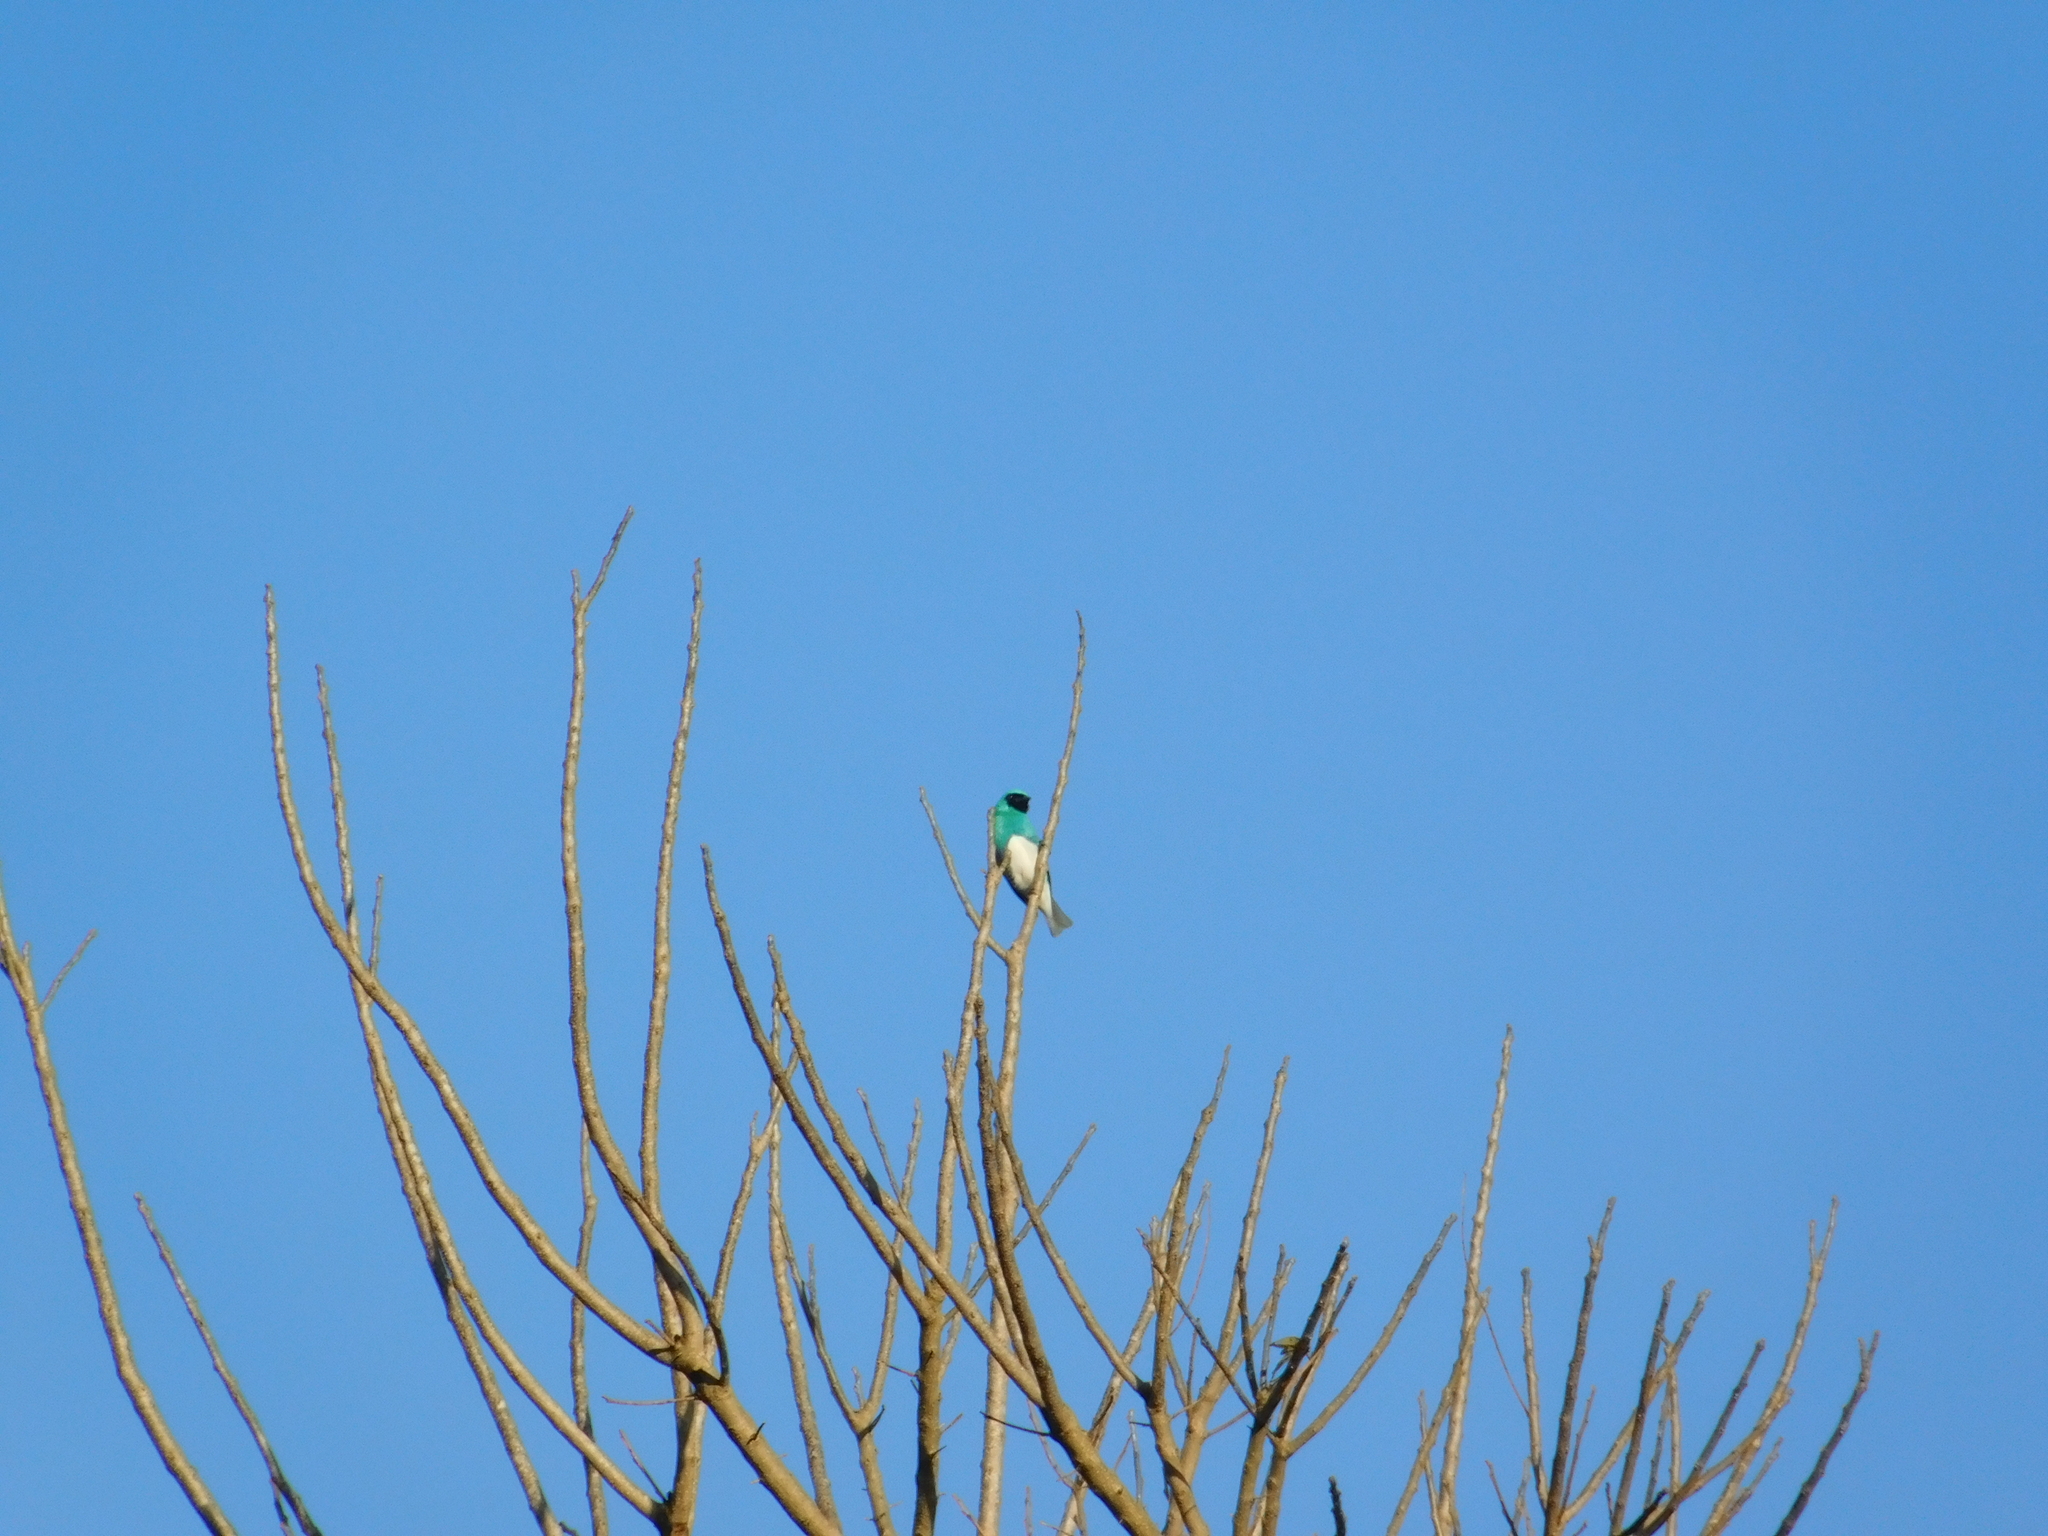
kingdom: Animalia
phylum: Chordata
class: Aves
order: Passeriformes
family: Thraupidae
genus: Tersina
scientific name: Tersina viridis
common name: Swallow tanager
